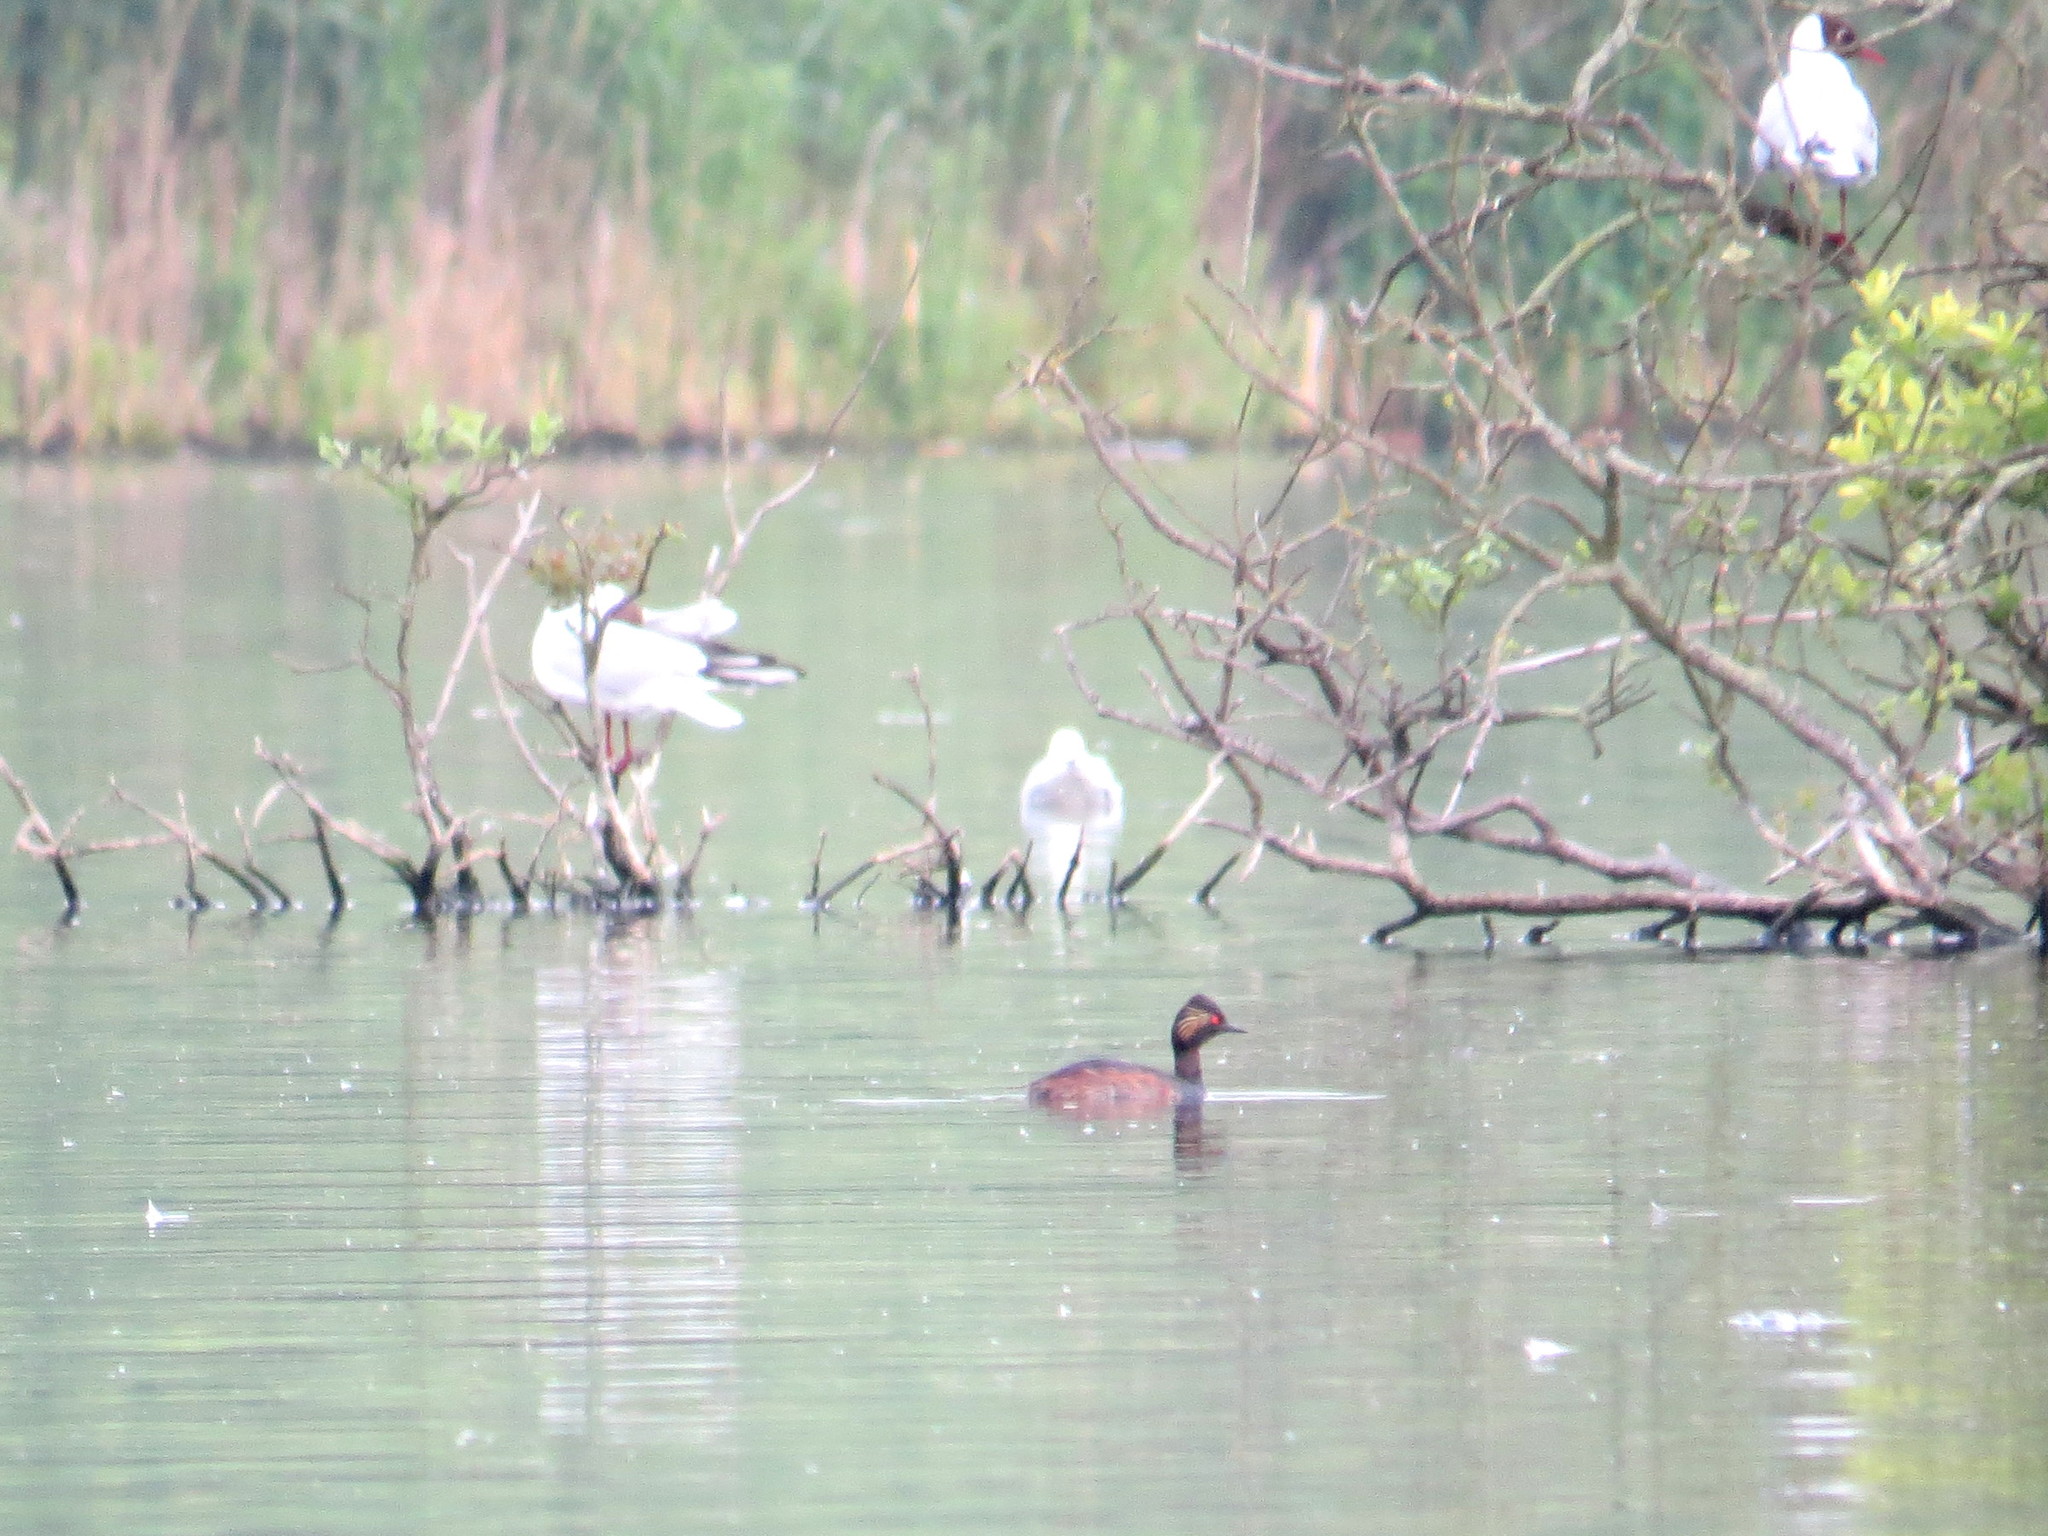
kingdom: Animalia
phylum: Chordata
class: Aves
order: Charadriiformes
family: Laridae
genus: Chroicocephalus
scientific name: Chroicocephalus ridibundus
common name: Black-headed gull
